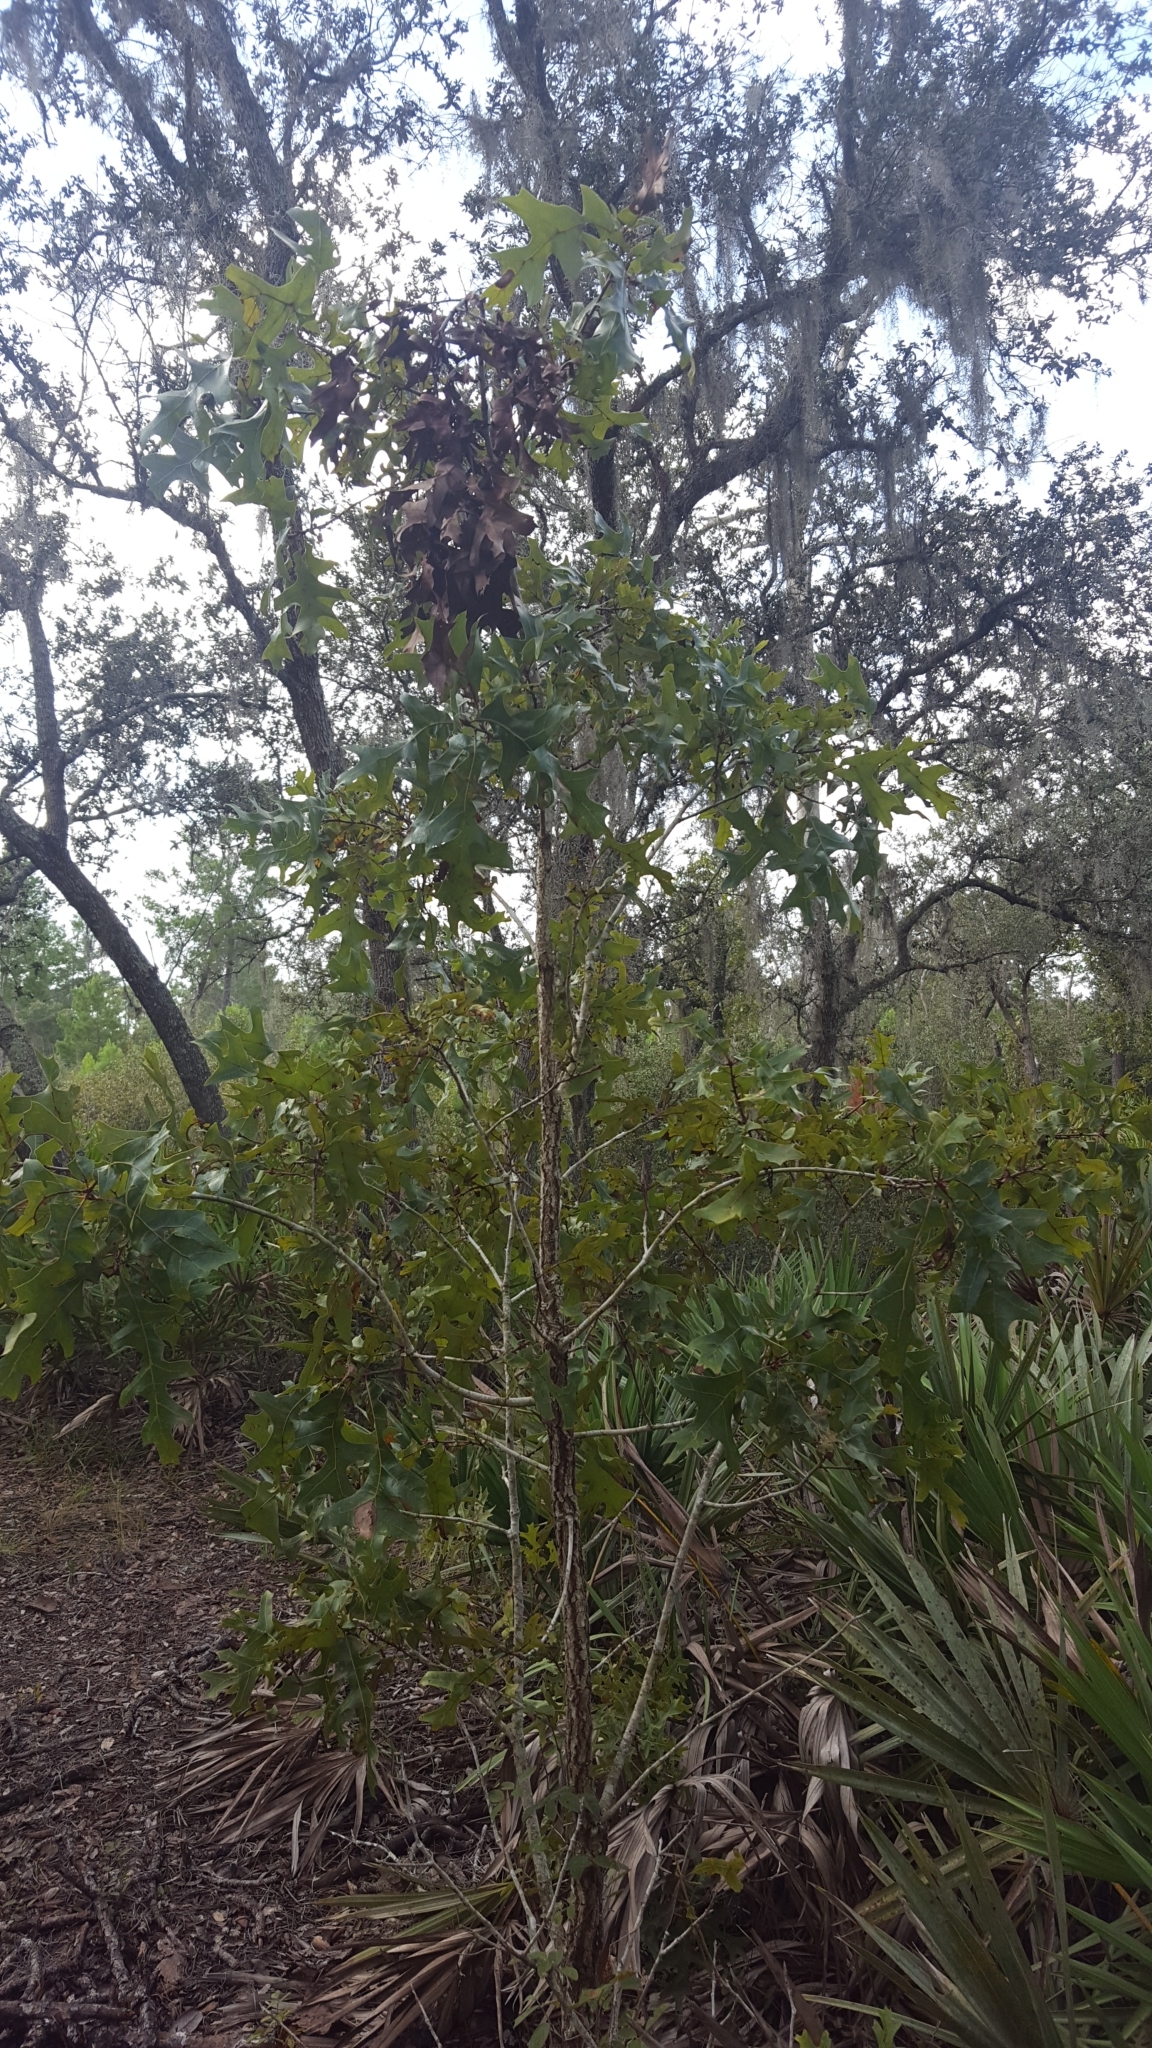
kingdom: Plantae
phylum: Tracheophyta
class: Magnoliopsida
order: Fagales
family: Fagaceae
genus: Quercus
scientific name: Quercus laevis
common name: Turkey oak
